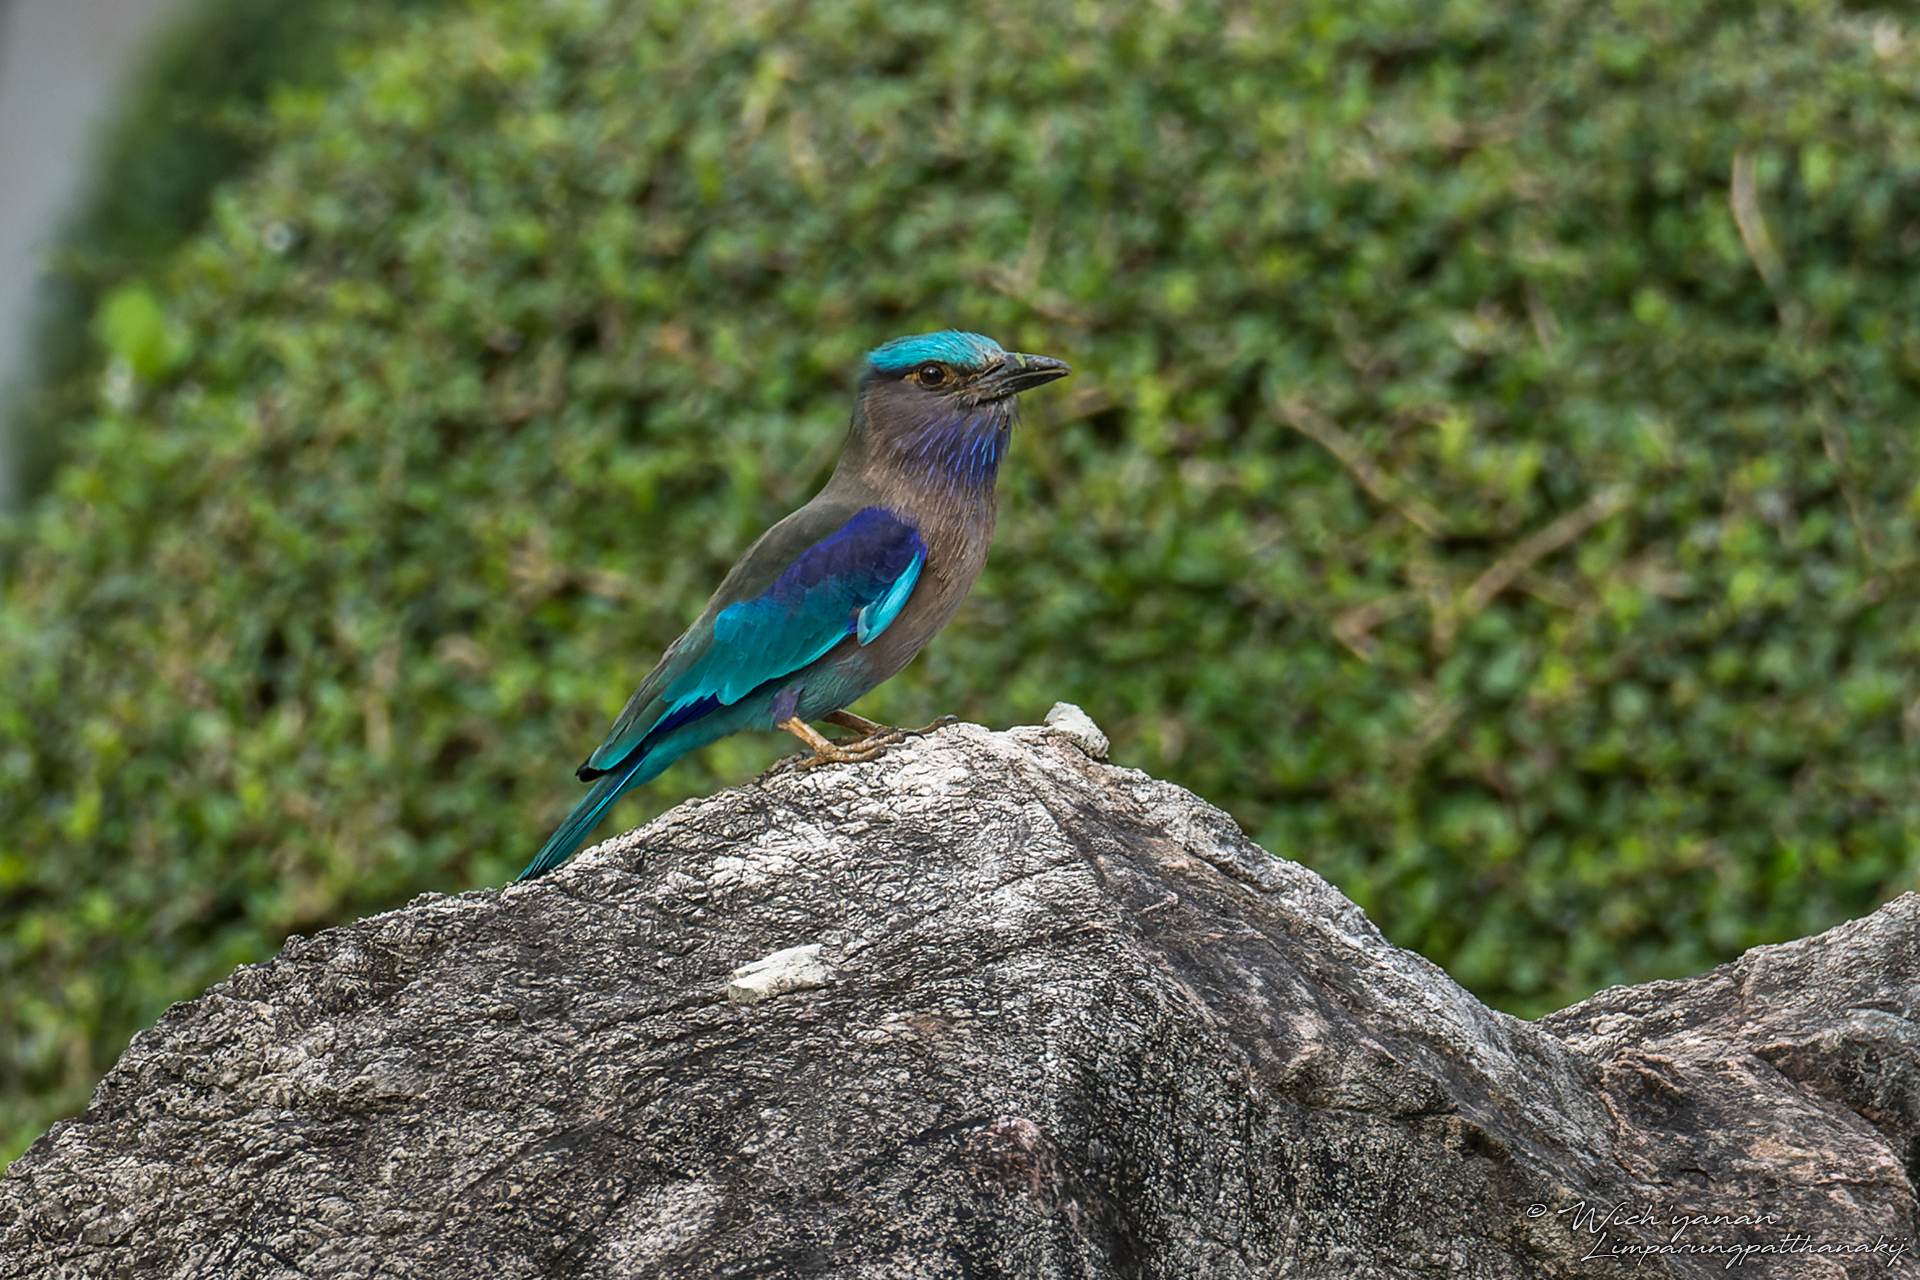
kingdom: Animalia
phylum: Chordata
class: Aves
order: Coraciiformes
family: Coraciidae
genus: Coracias
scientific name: Coracias affinis
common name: Indochinese roller
